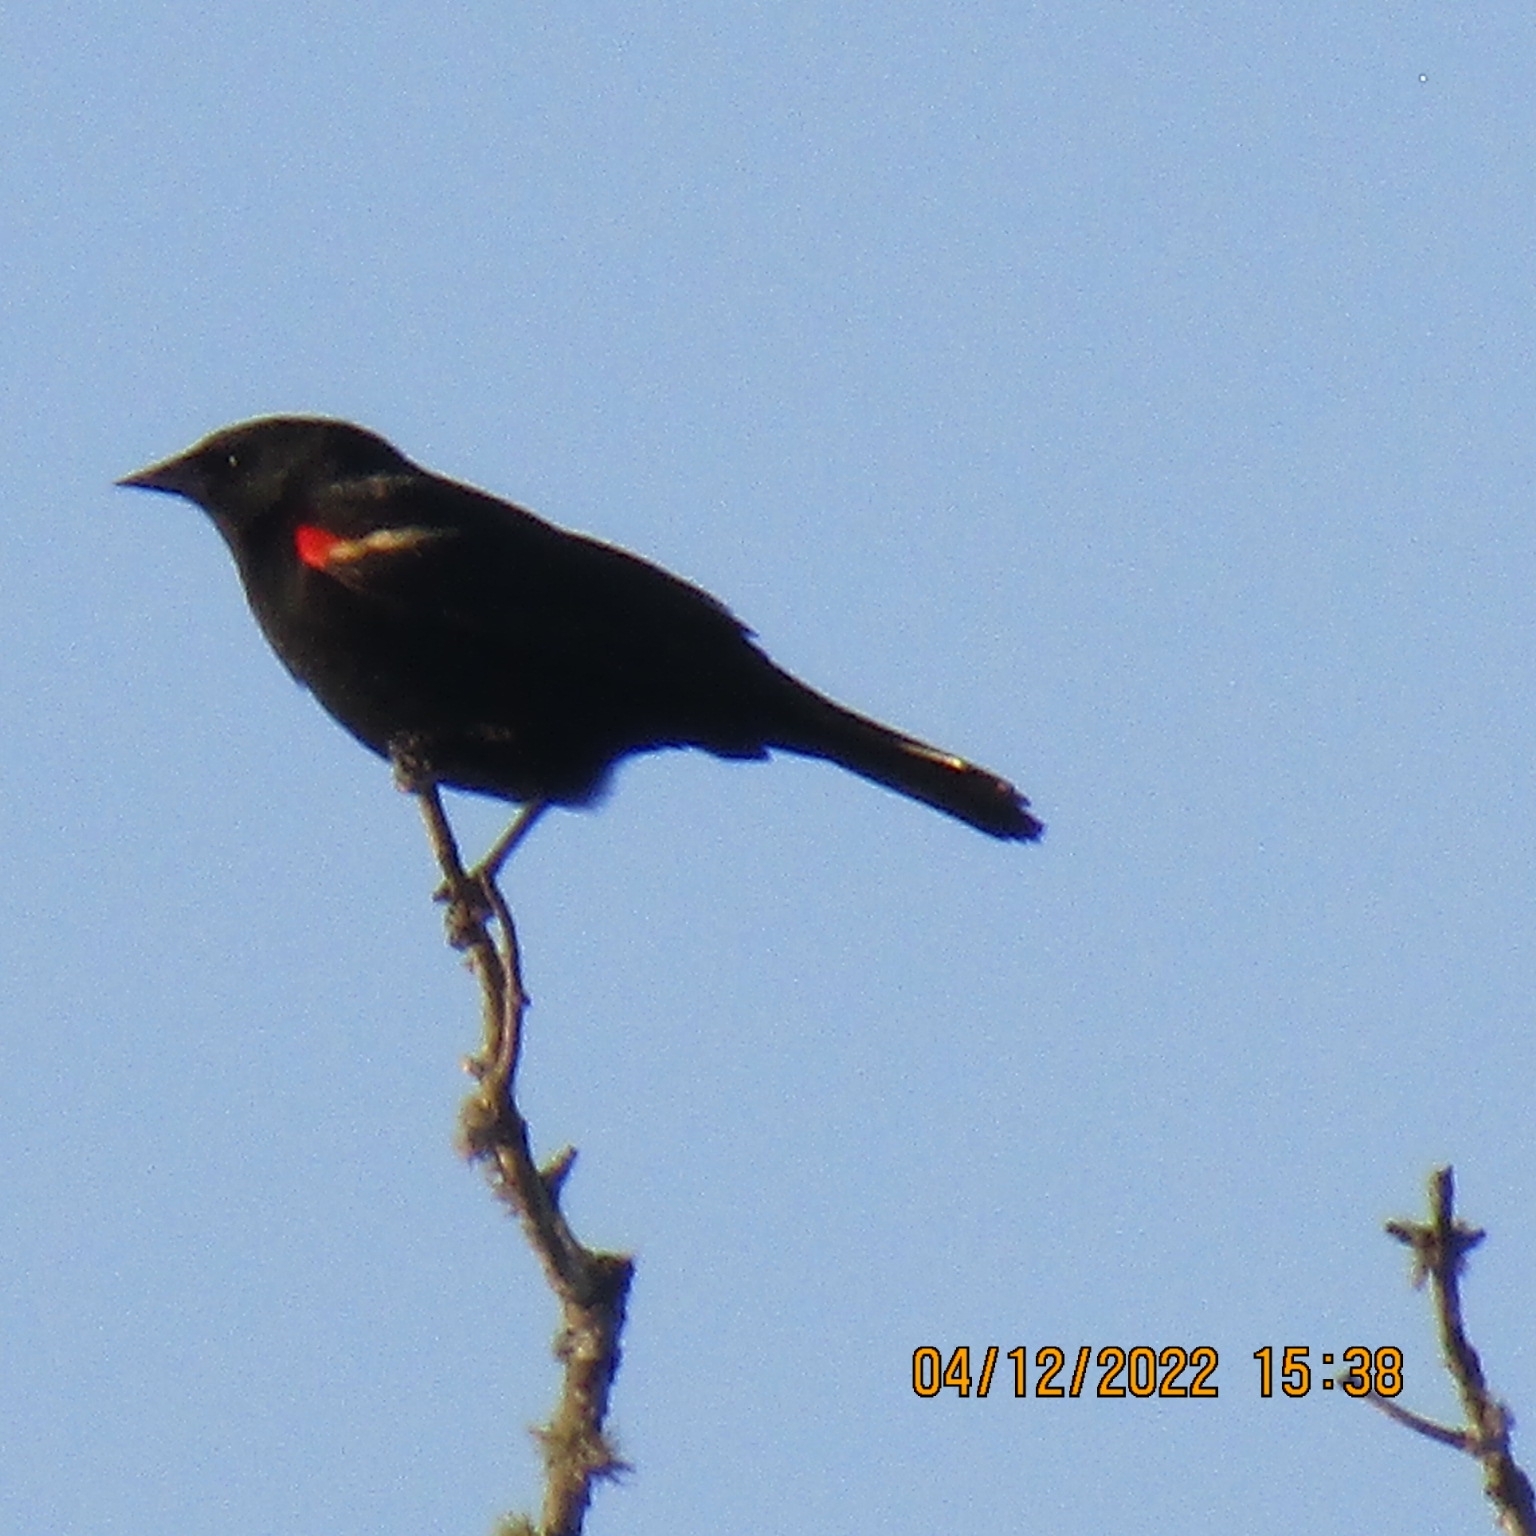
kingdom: Animalia
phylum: Chordata
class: Aves
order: Passeriformes
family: Icteridae
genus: Agelaius
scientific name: Agelaius phoeniceus
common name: Red-winged blackbird
